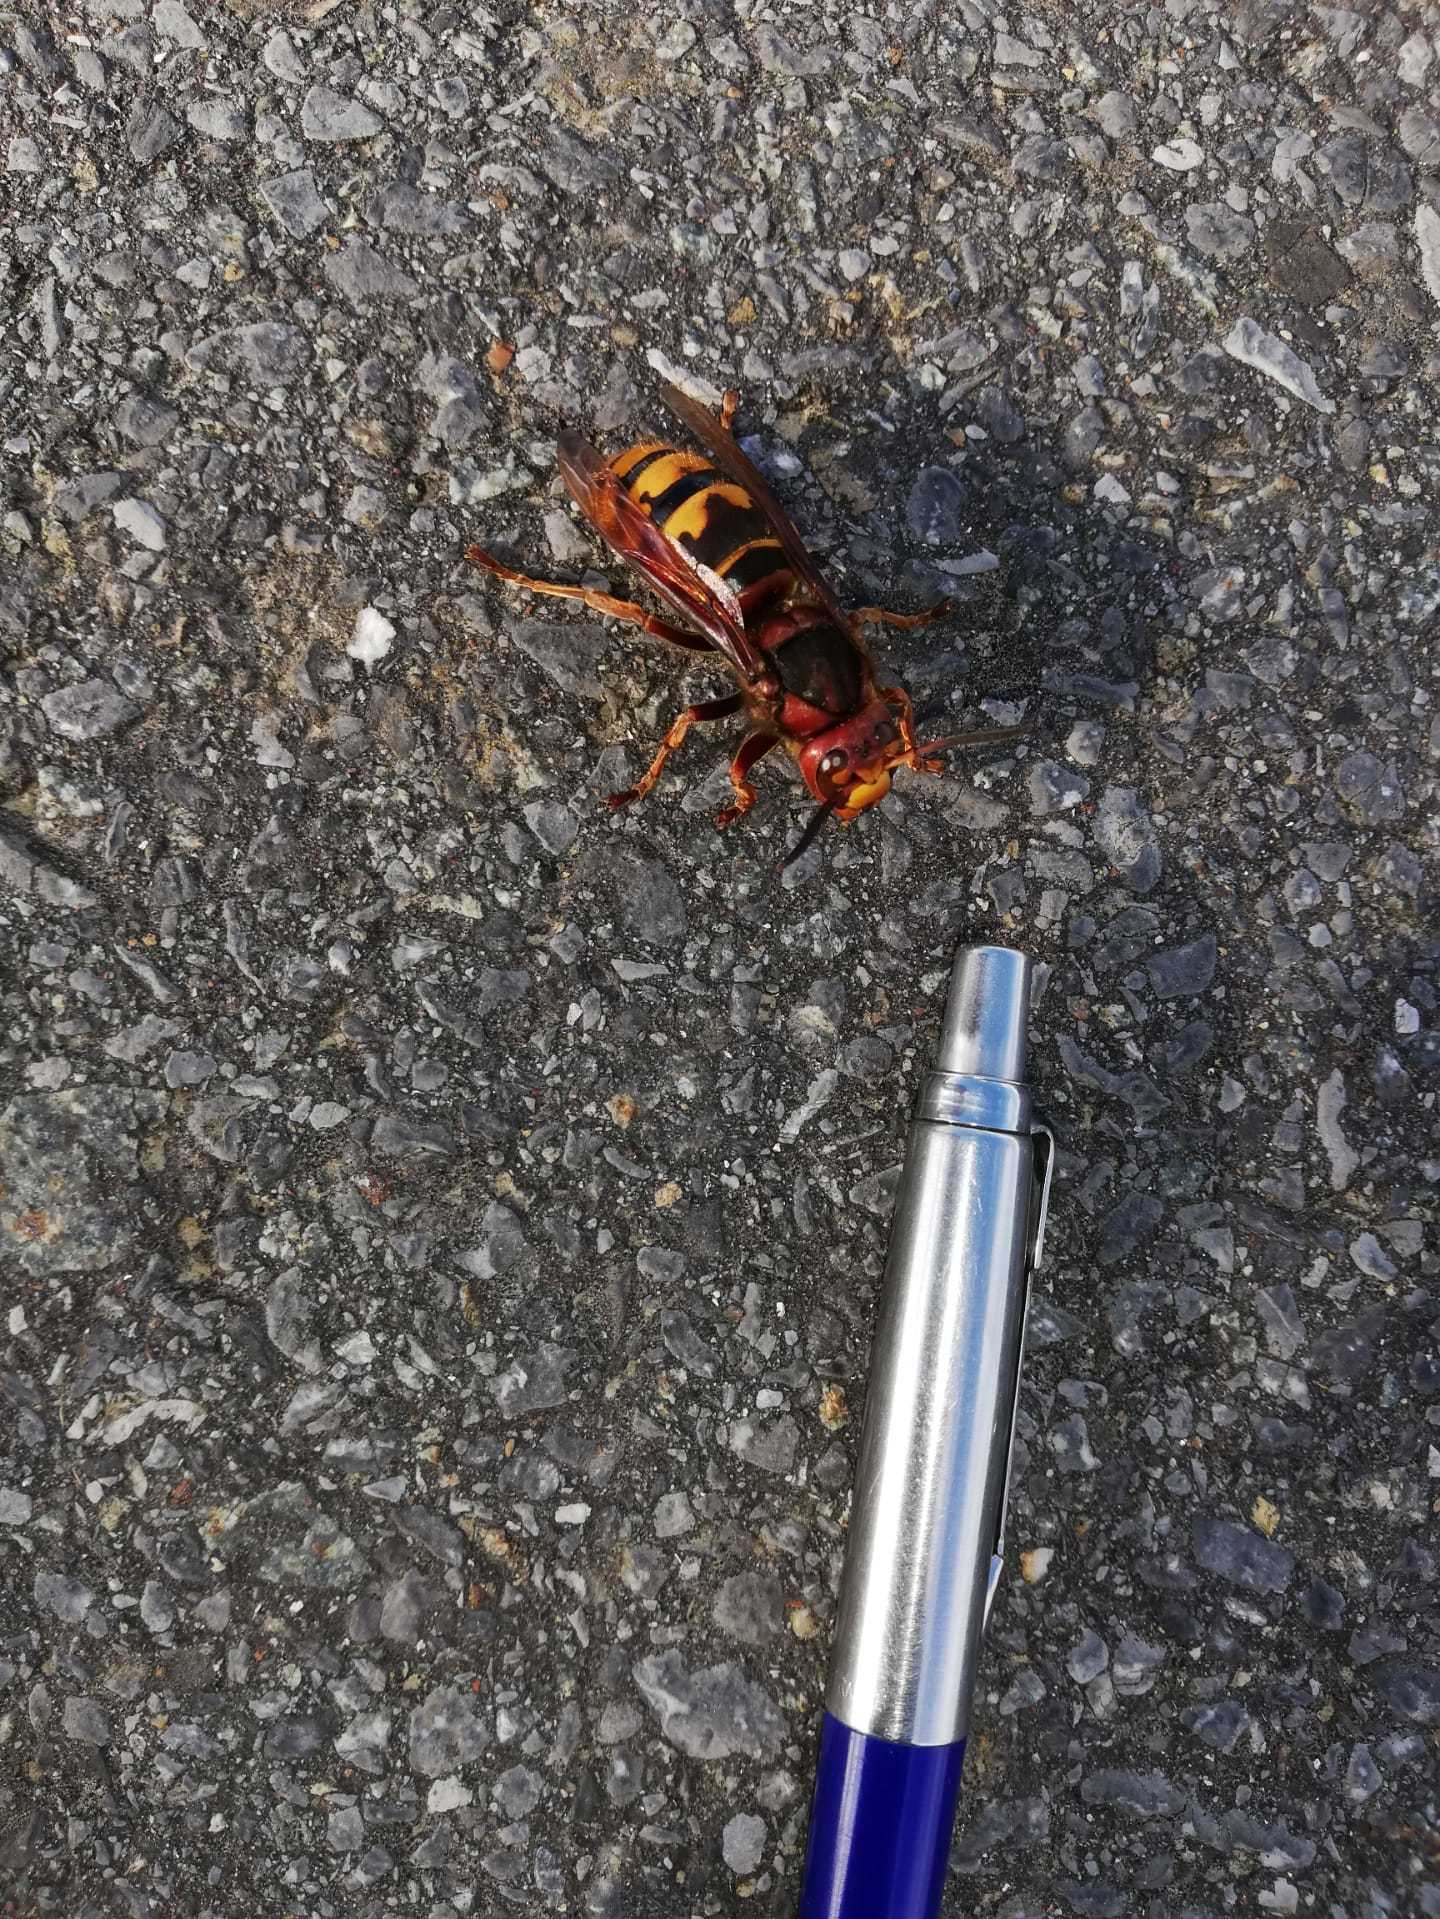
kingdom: Animalia
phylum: Arthropoda
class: Insecta
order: Hymenoptera
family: Vespidae
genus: Vespa
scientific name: Vespa crabro
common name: Hornet
